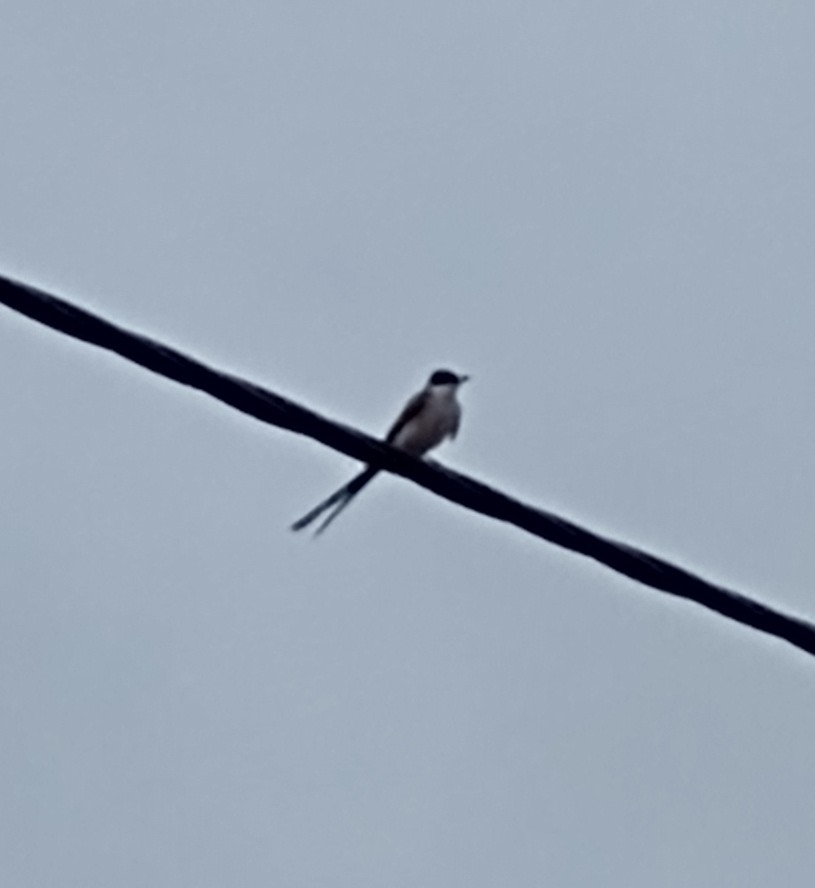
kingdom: Animalia
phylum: Chordata
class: Aves
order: Passeriformes
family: Tyrannidae
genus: Tyrannus
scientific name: Tyrannus savana
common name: Fork-tailed flycatcher
